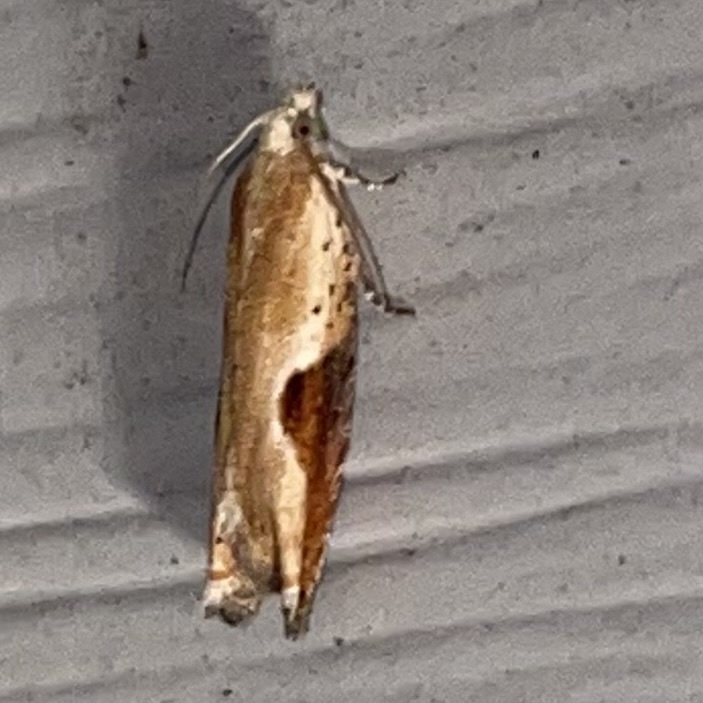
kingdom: Animalia
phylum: Arthropoda
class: Insecta
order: Lepidoptera
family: Tortricidae
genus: Pseudexentera
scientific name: Pseudexentera costomaculana
